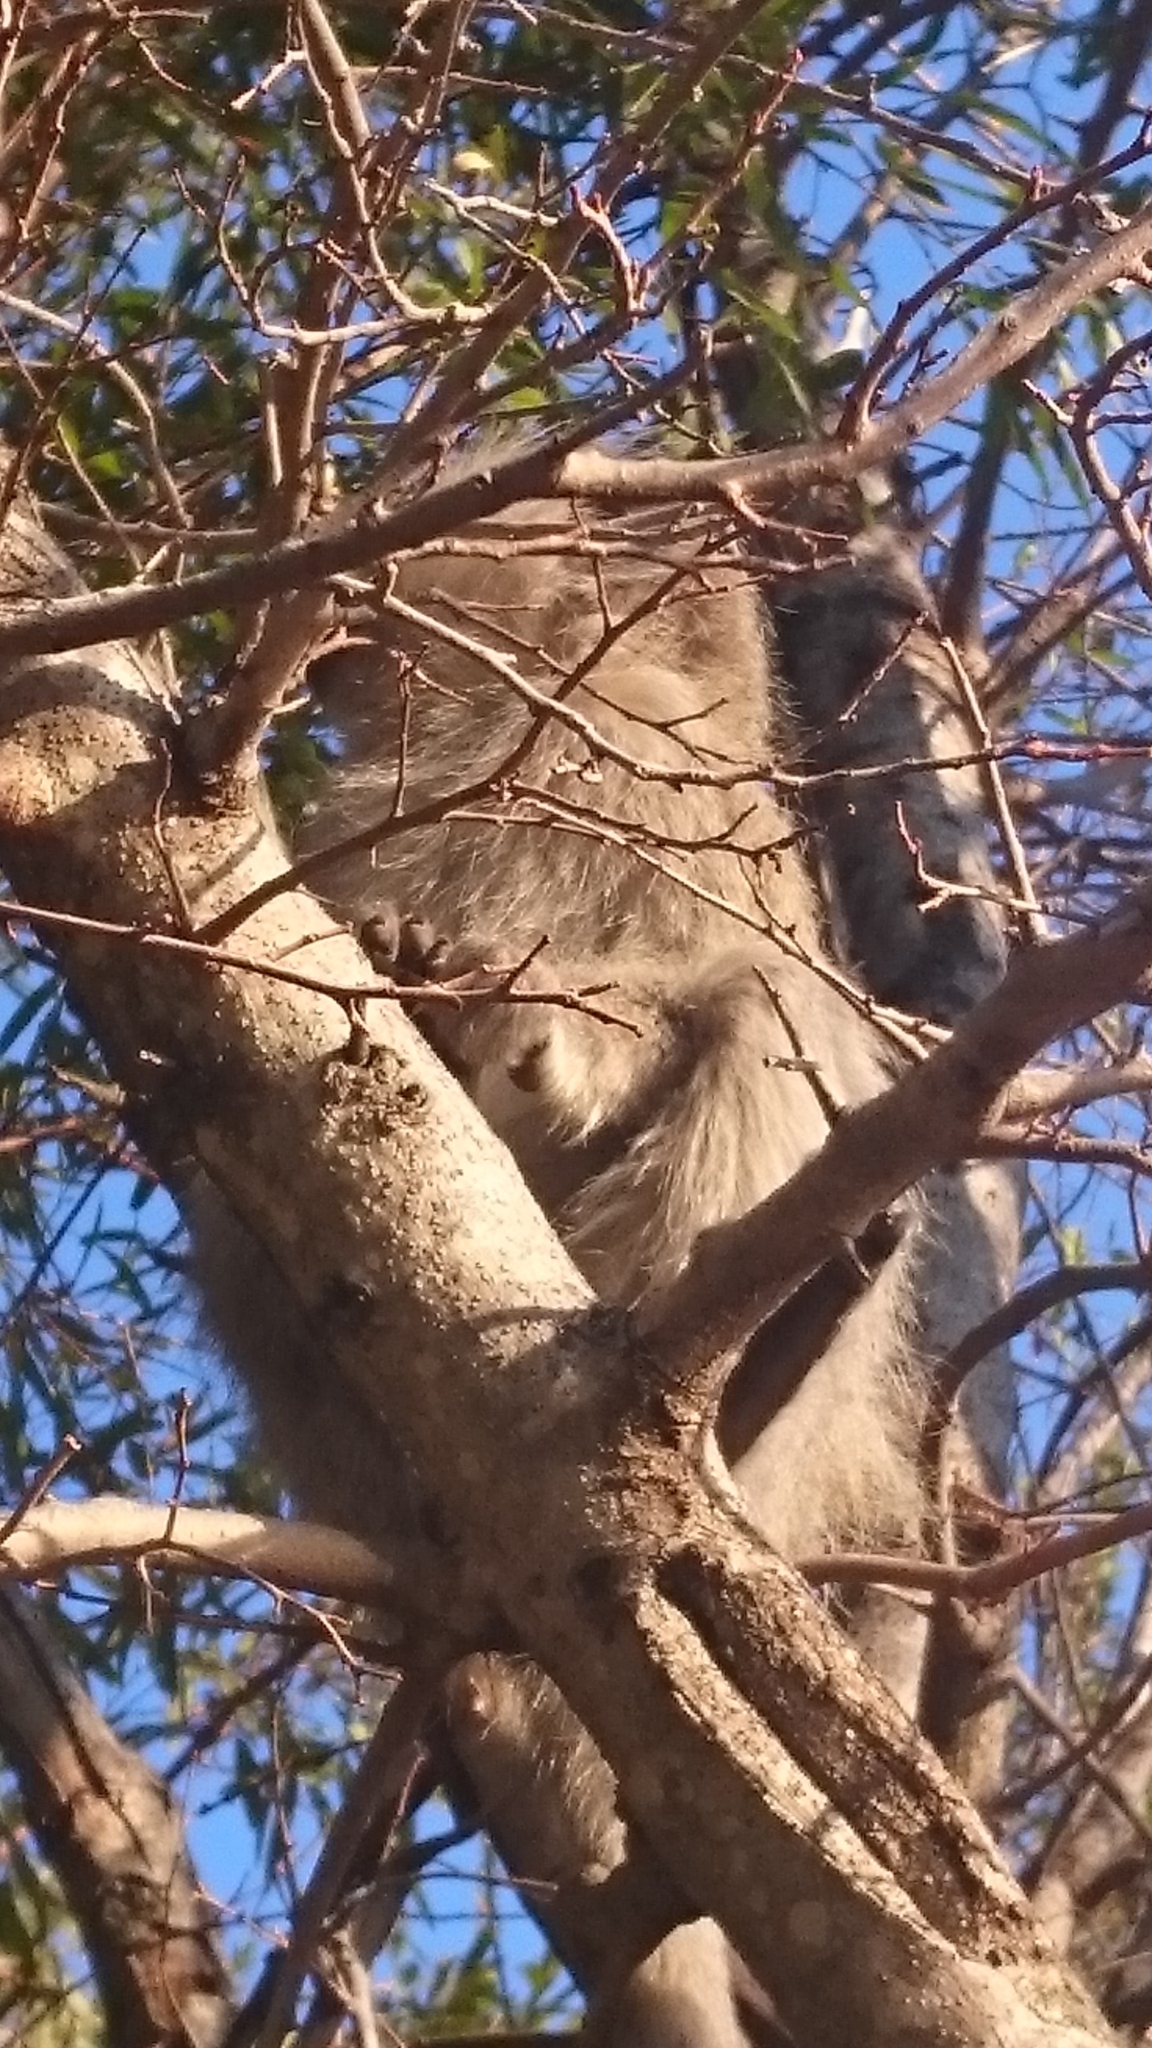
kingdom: Animalia
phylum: Chordata
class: Mammalia
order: Primates
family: Cercopithecidae
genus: Chlorocebus
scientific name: Chlorocebus pygerythrus
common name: Vervet monkey
